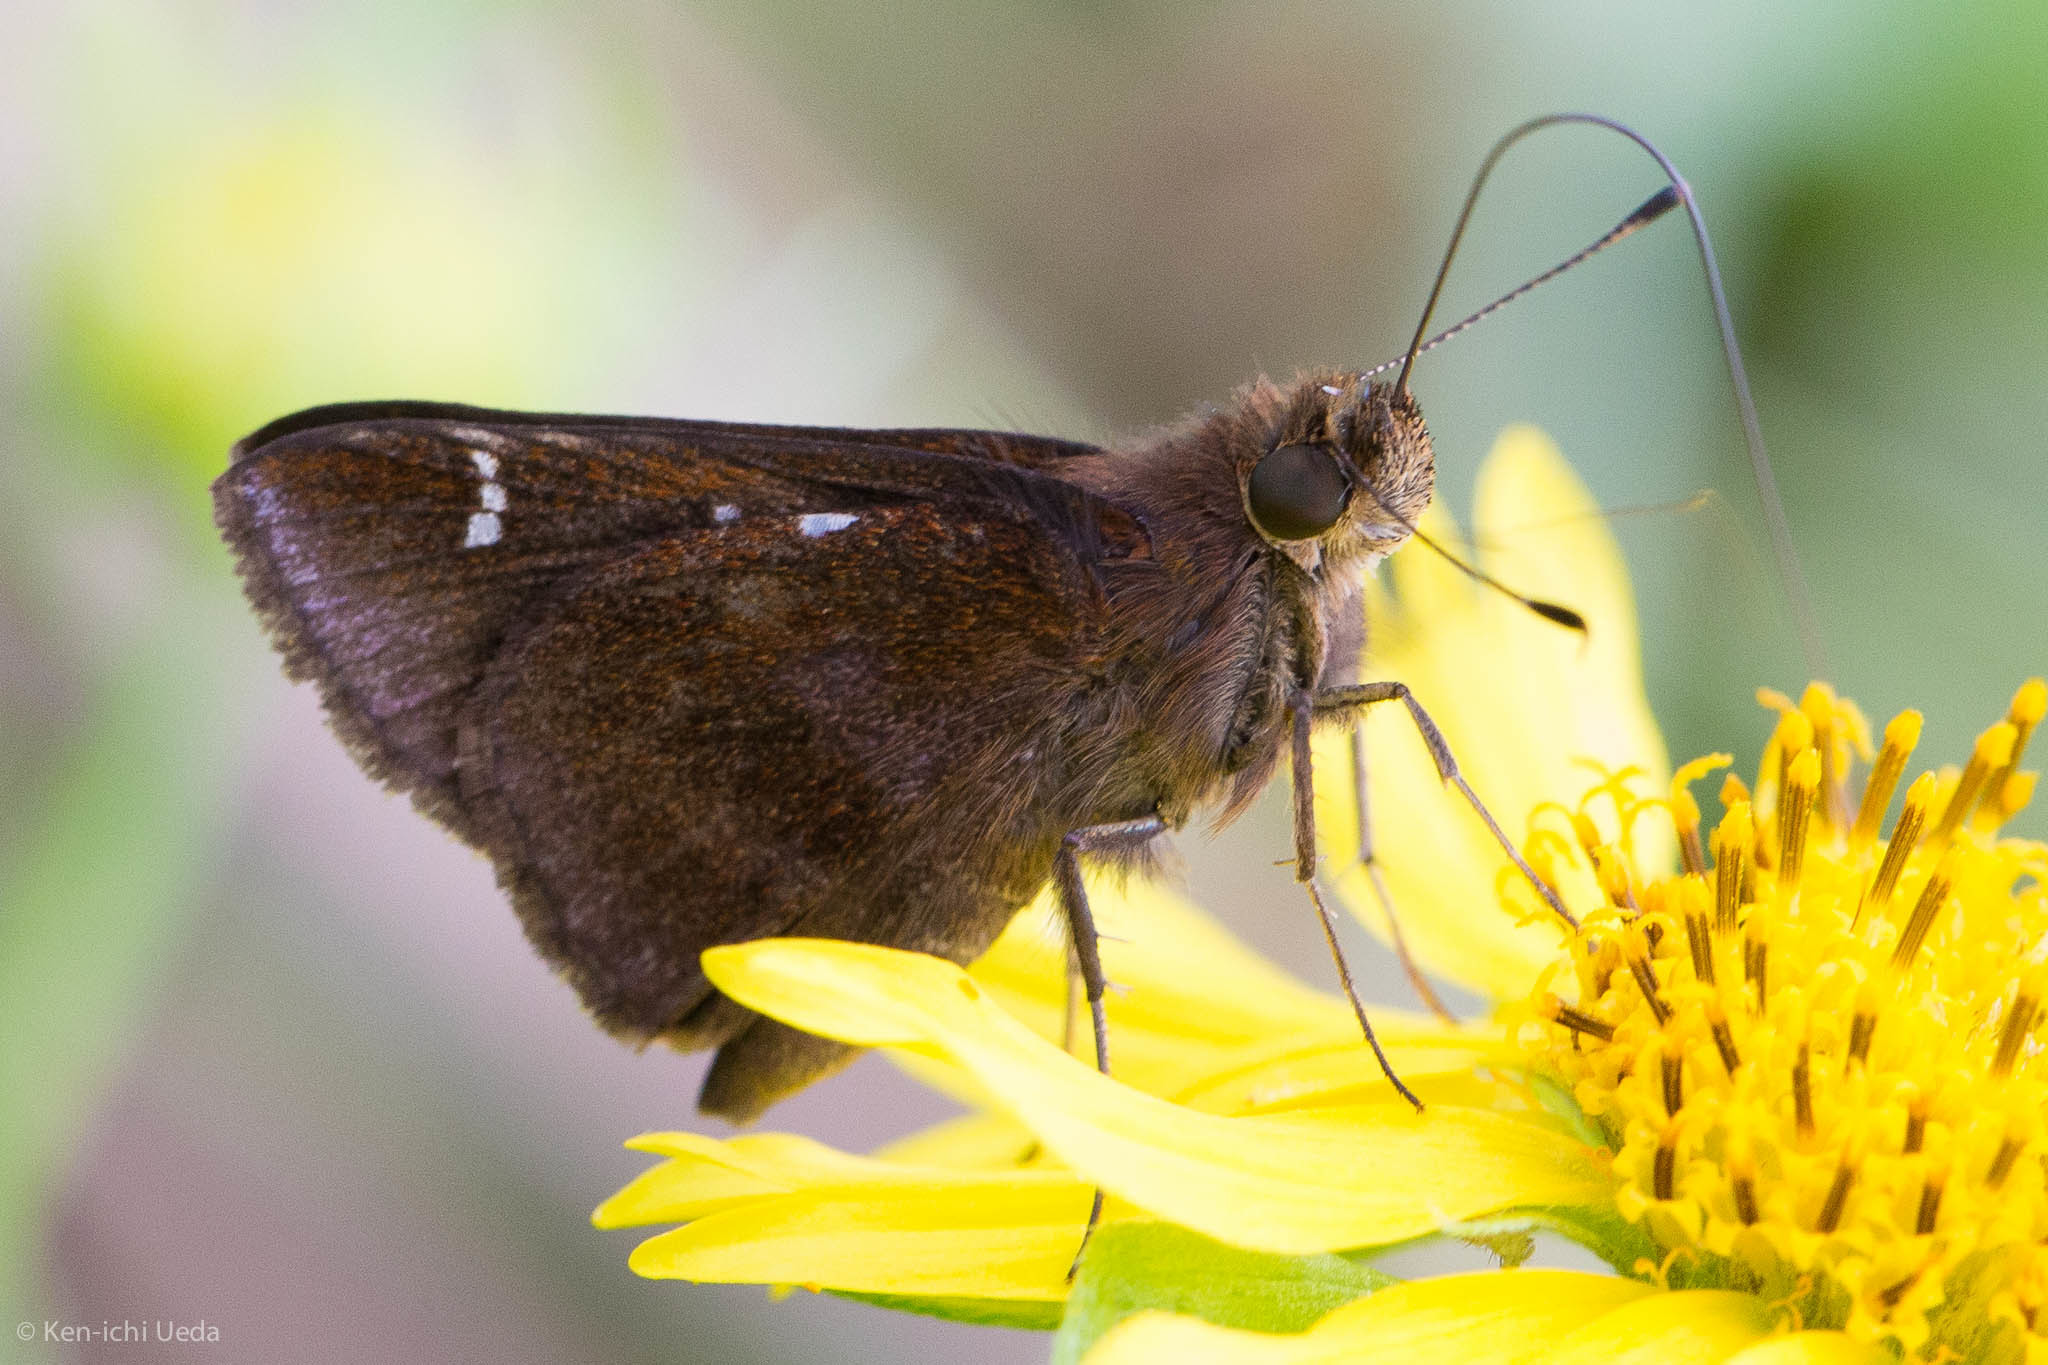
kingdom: Animalia
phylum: Arthropoda
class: Insecta
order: Lepidoptera
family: Hesperiidae
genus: Lerema
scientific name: Lerema accius
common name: Clouded skipper
